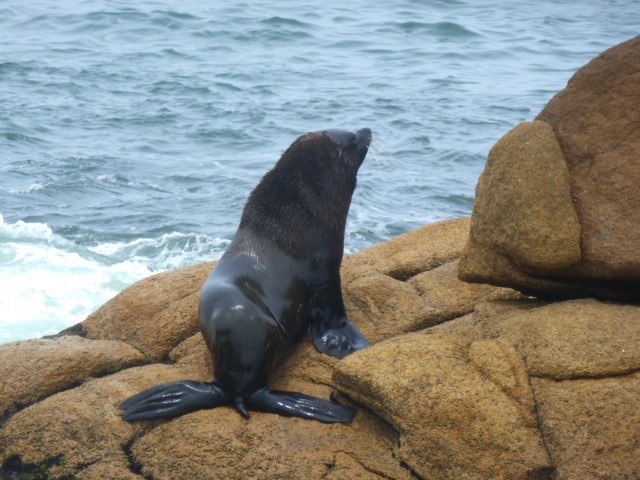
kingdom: Animalia
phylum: Chordata
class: Mammalia
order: Carnivora
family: Otariidae
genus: Arctocephalus
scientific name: Arctocephalus australis
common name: South american fur seal
